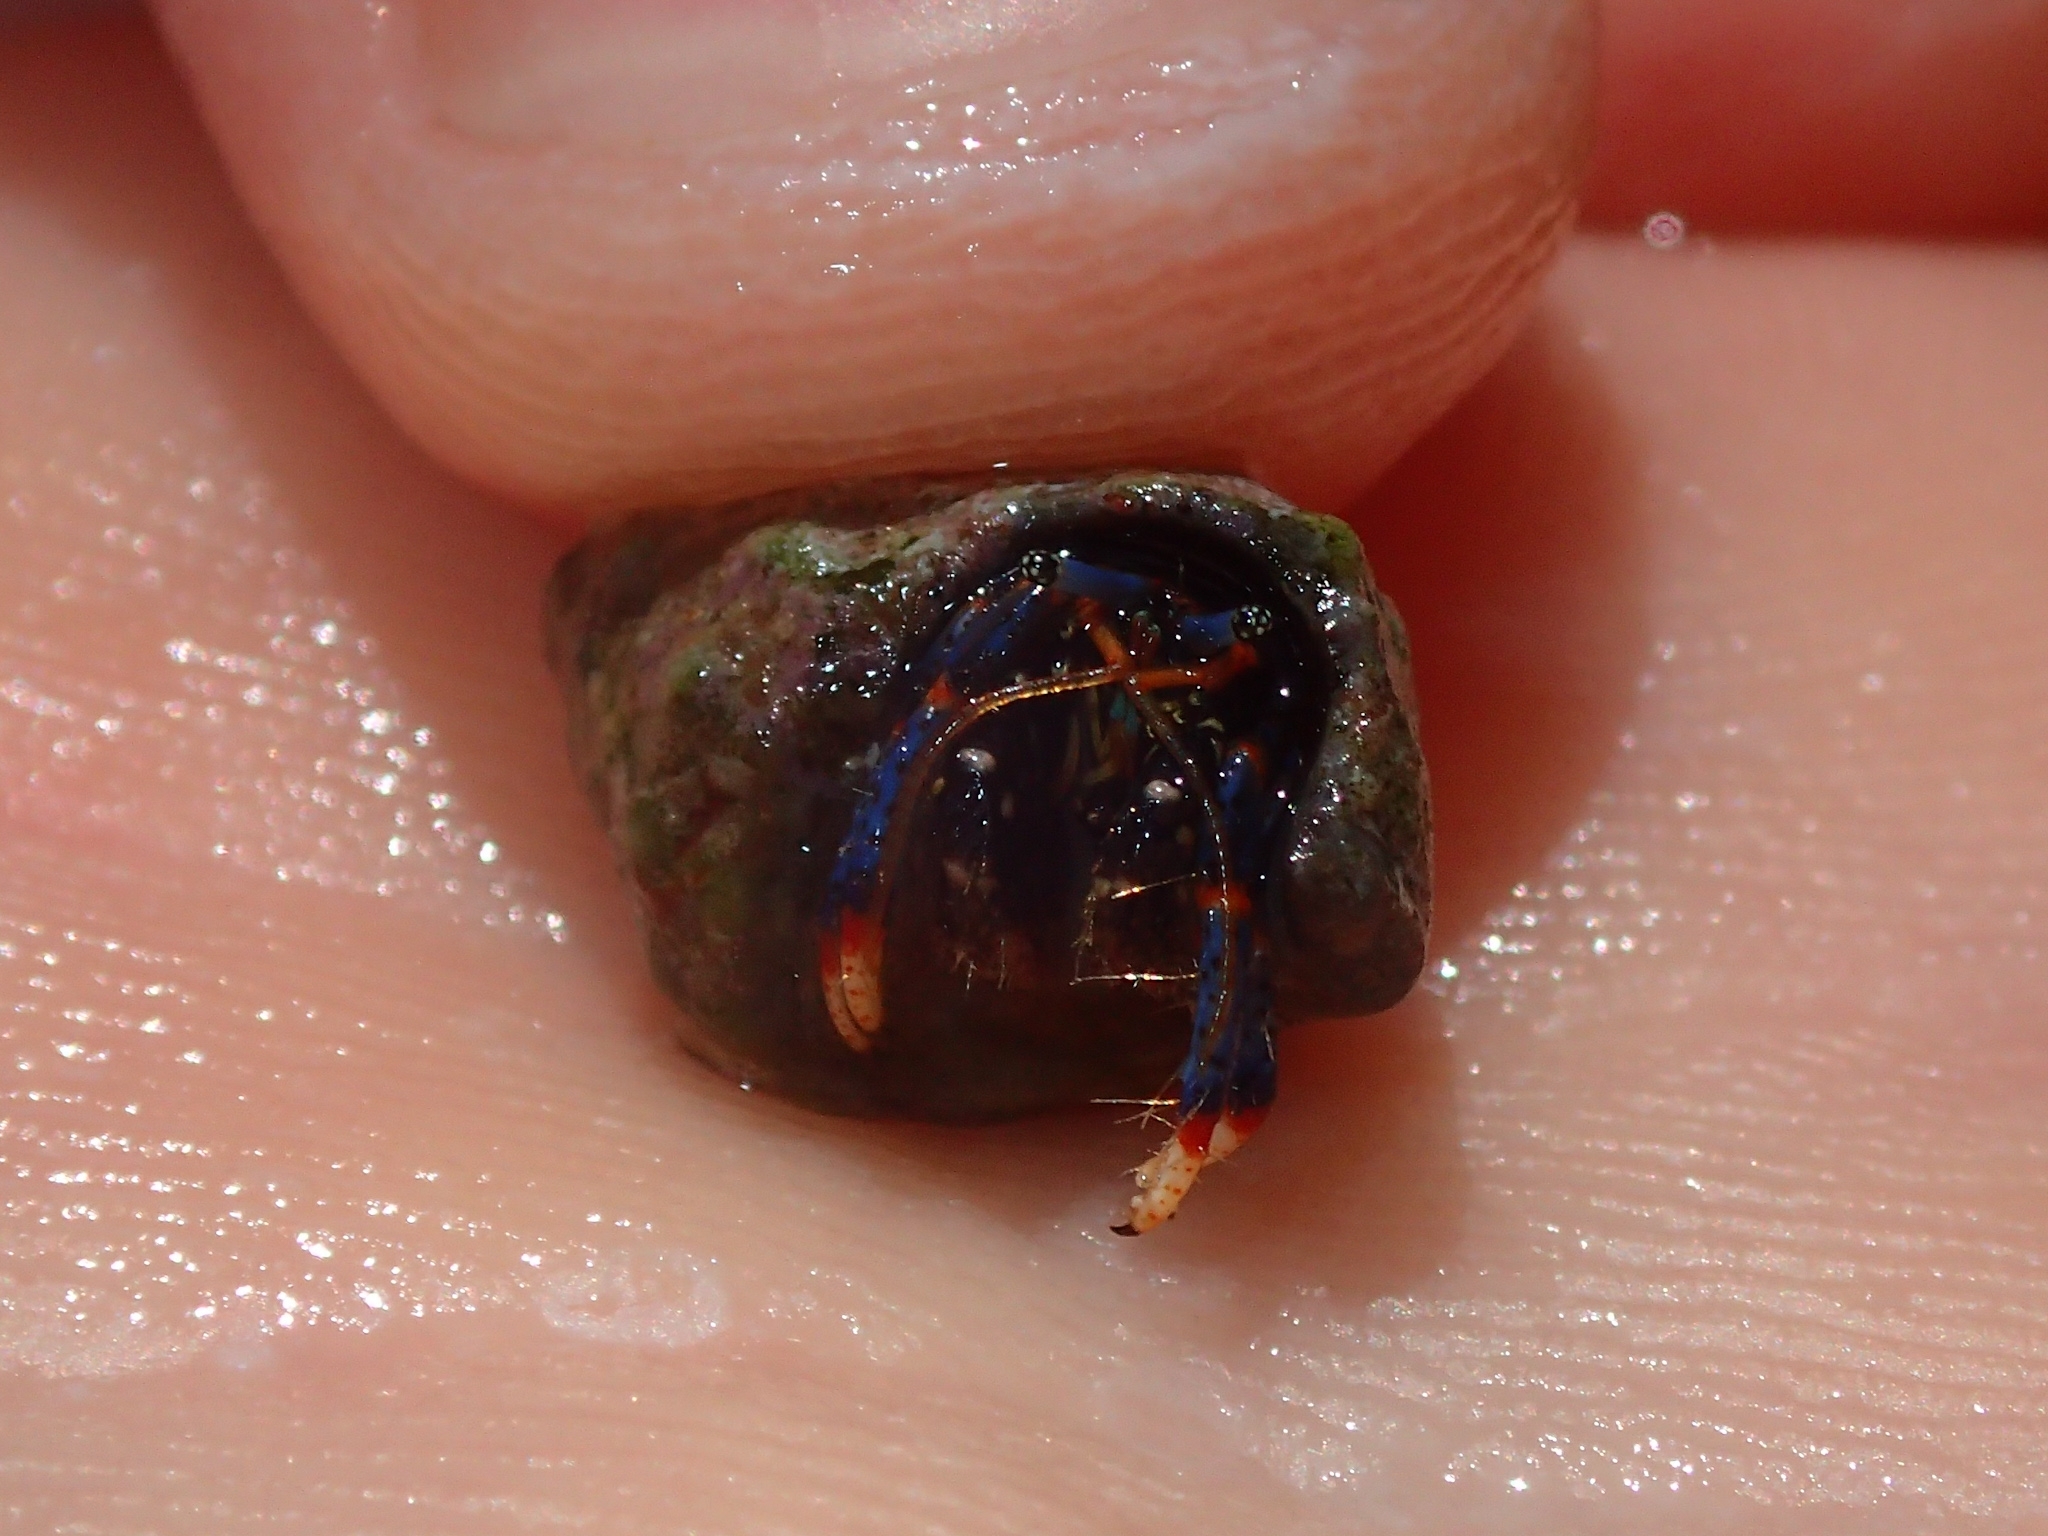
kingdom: Animalia
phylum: Arthropoda
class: Malacostraca
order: Decapoda
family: Diogenidae
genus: Clibanarius
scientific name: Clibanarius tricolor
